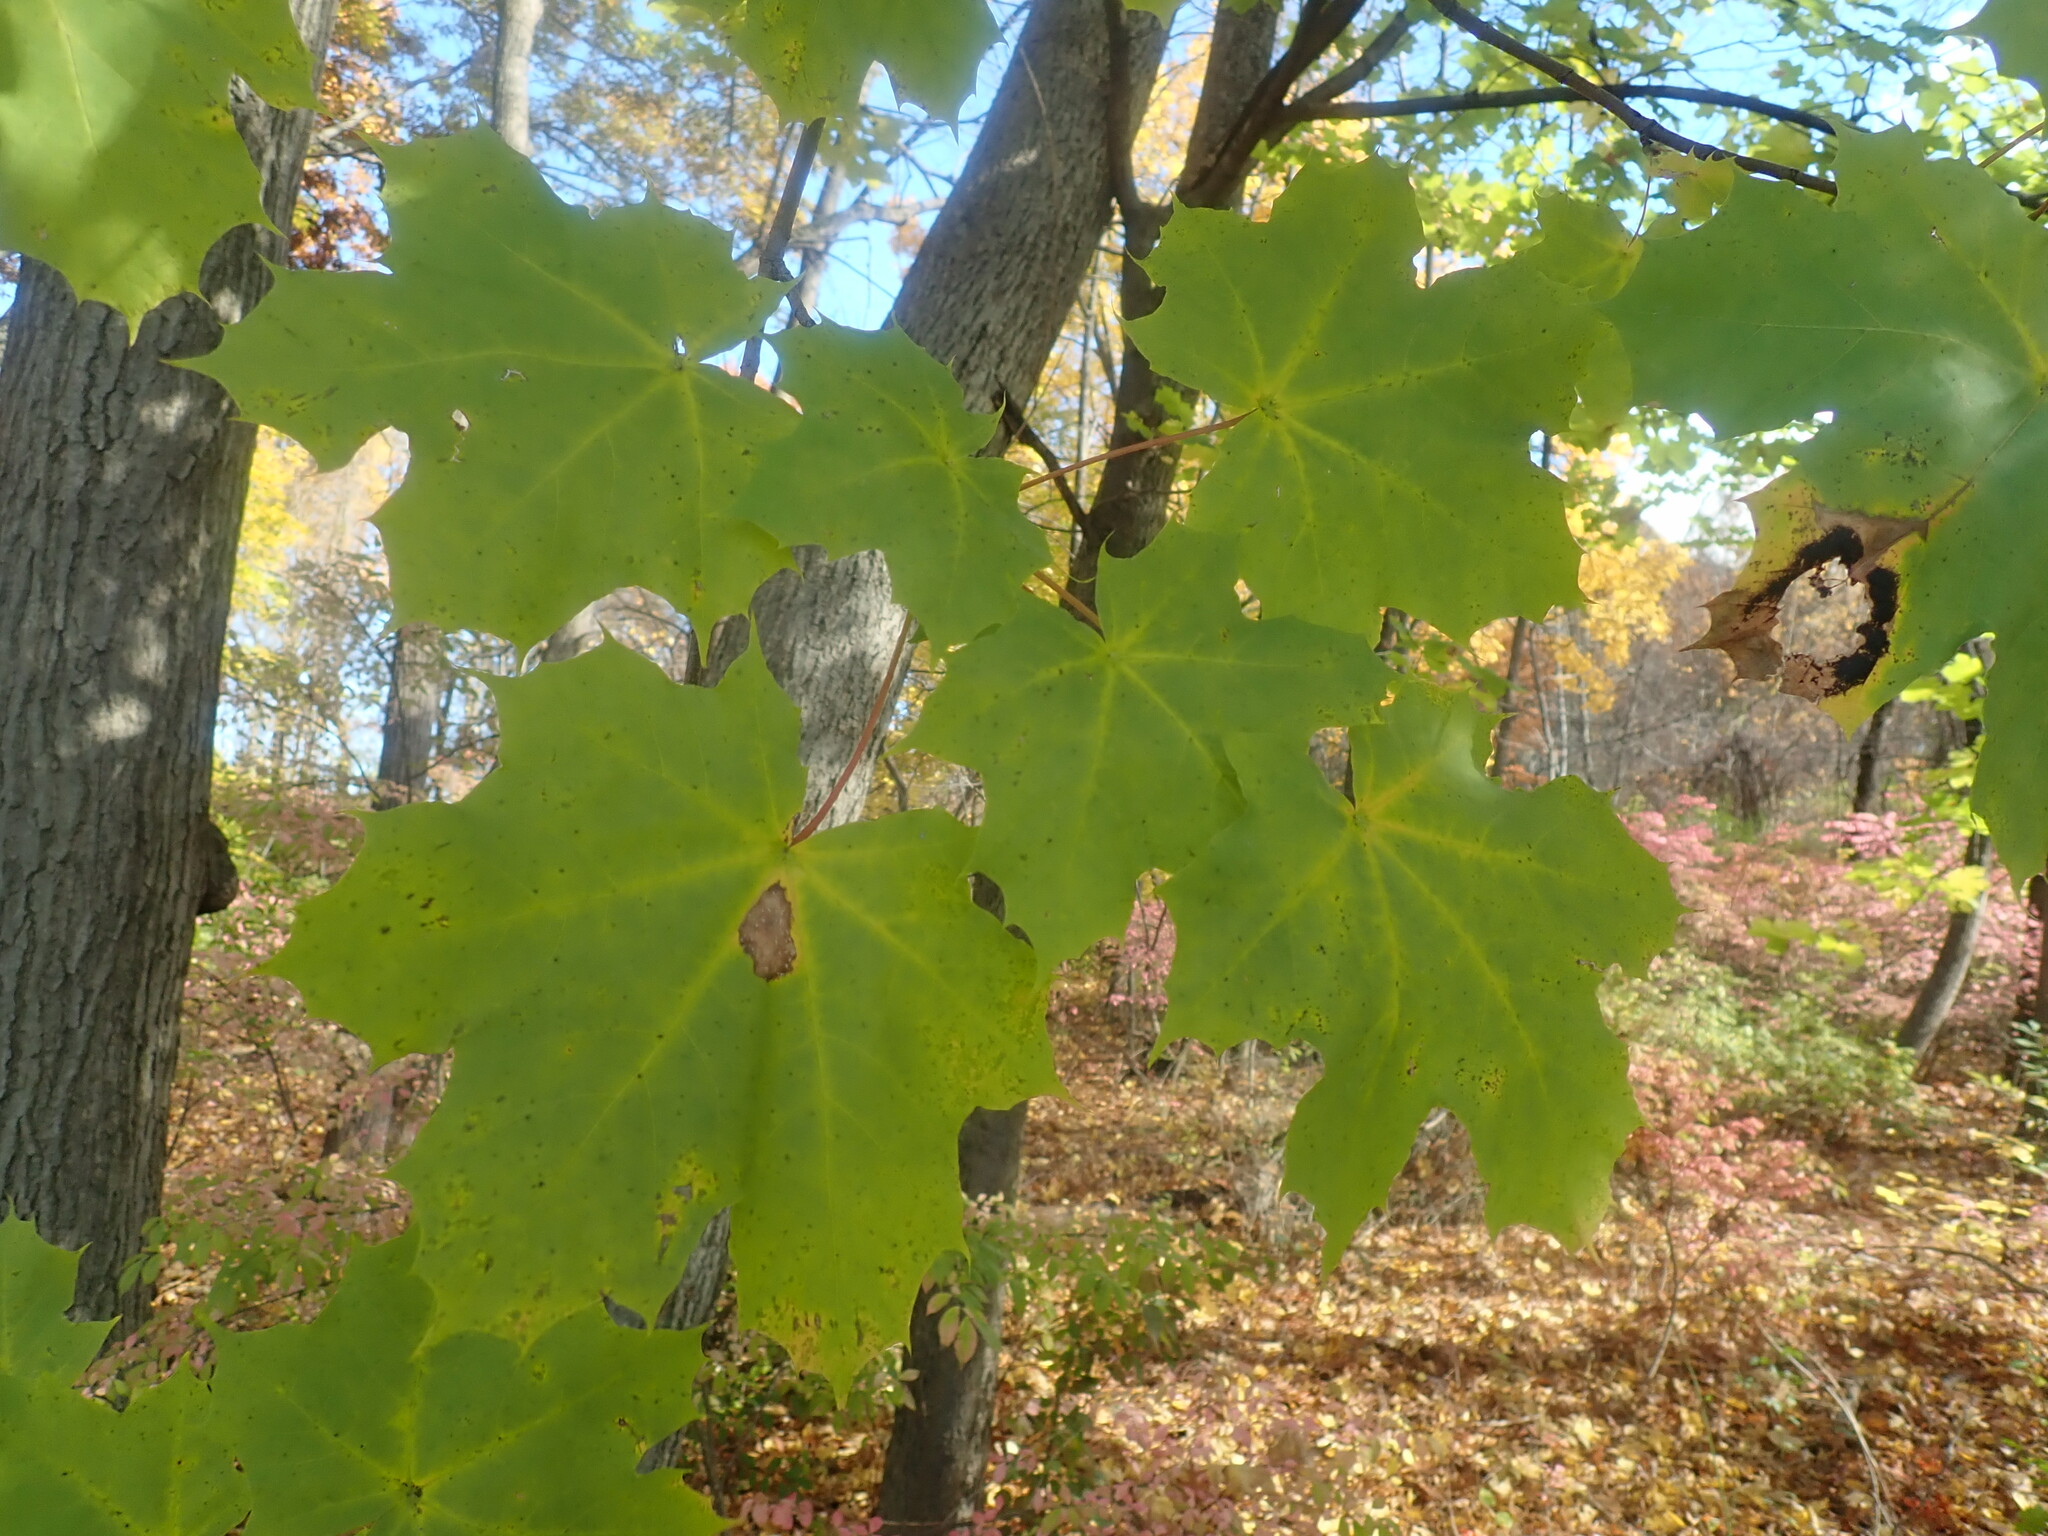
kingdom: Plantae
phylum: Tracheophyta
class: Magnoliopsida
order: Sapindales
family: Sapindaceae
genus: Acer
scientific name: Acer platanoides
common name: Norway maple
